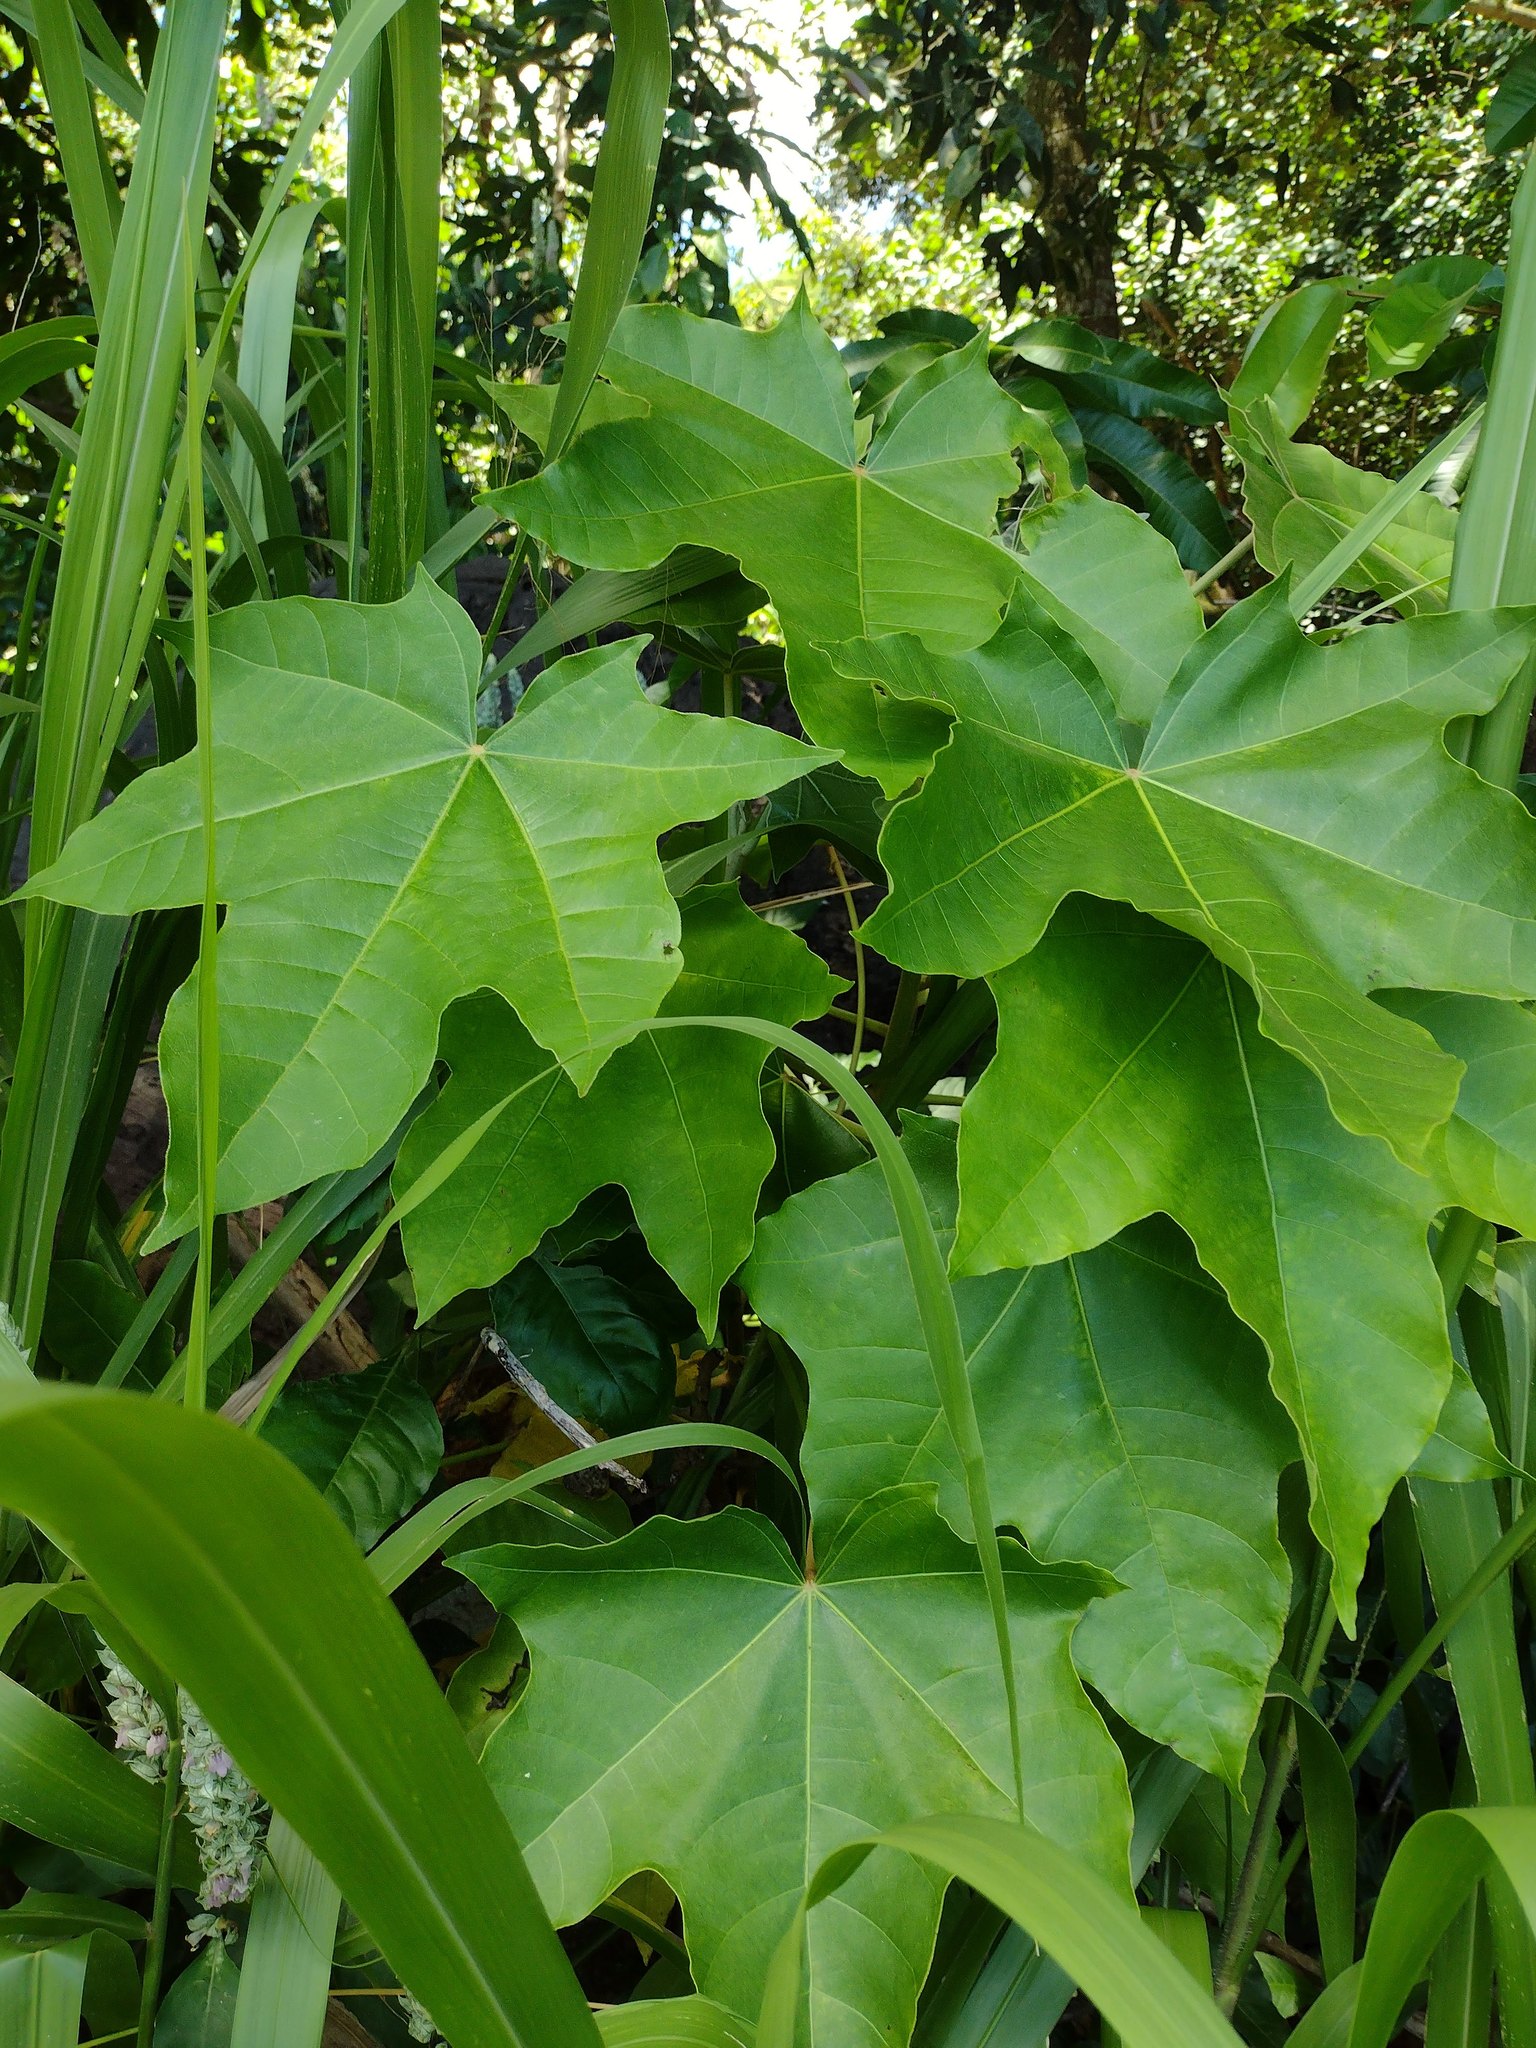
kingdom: Plantae
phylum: Tracheophyta
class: Magnoliopsida
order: Malpighiales
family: Euphorbiaceae
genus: Aleurites
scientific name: Aleurites moluccanus
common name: Candlenut tree
